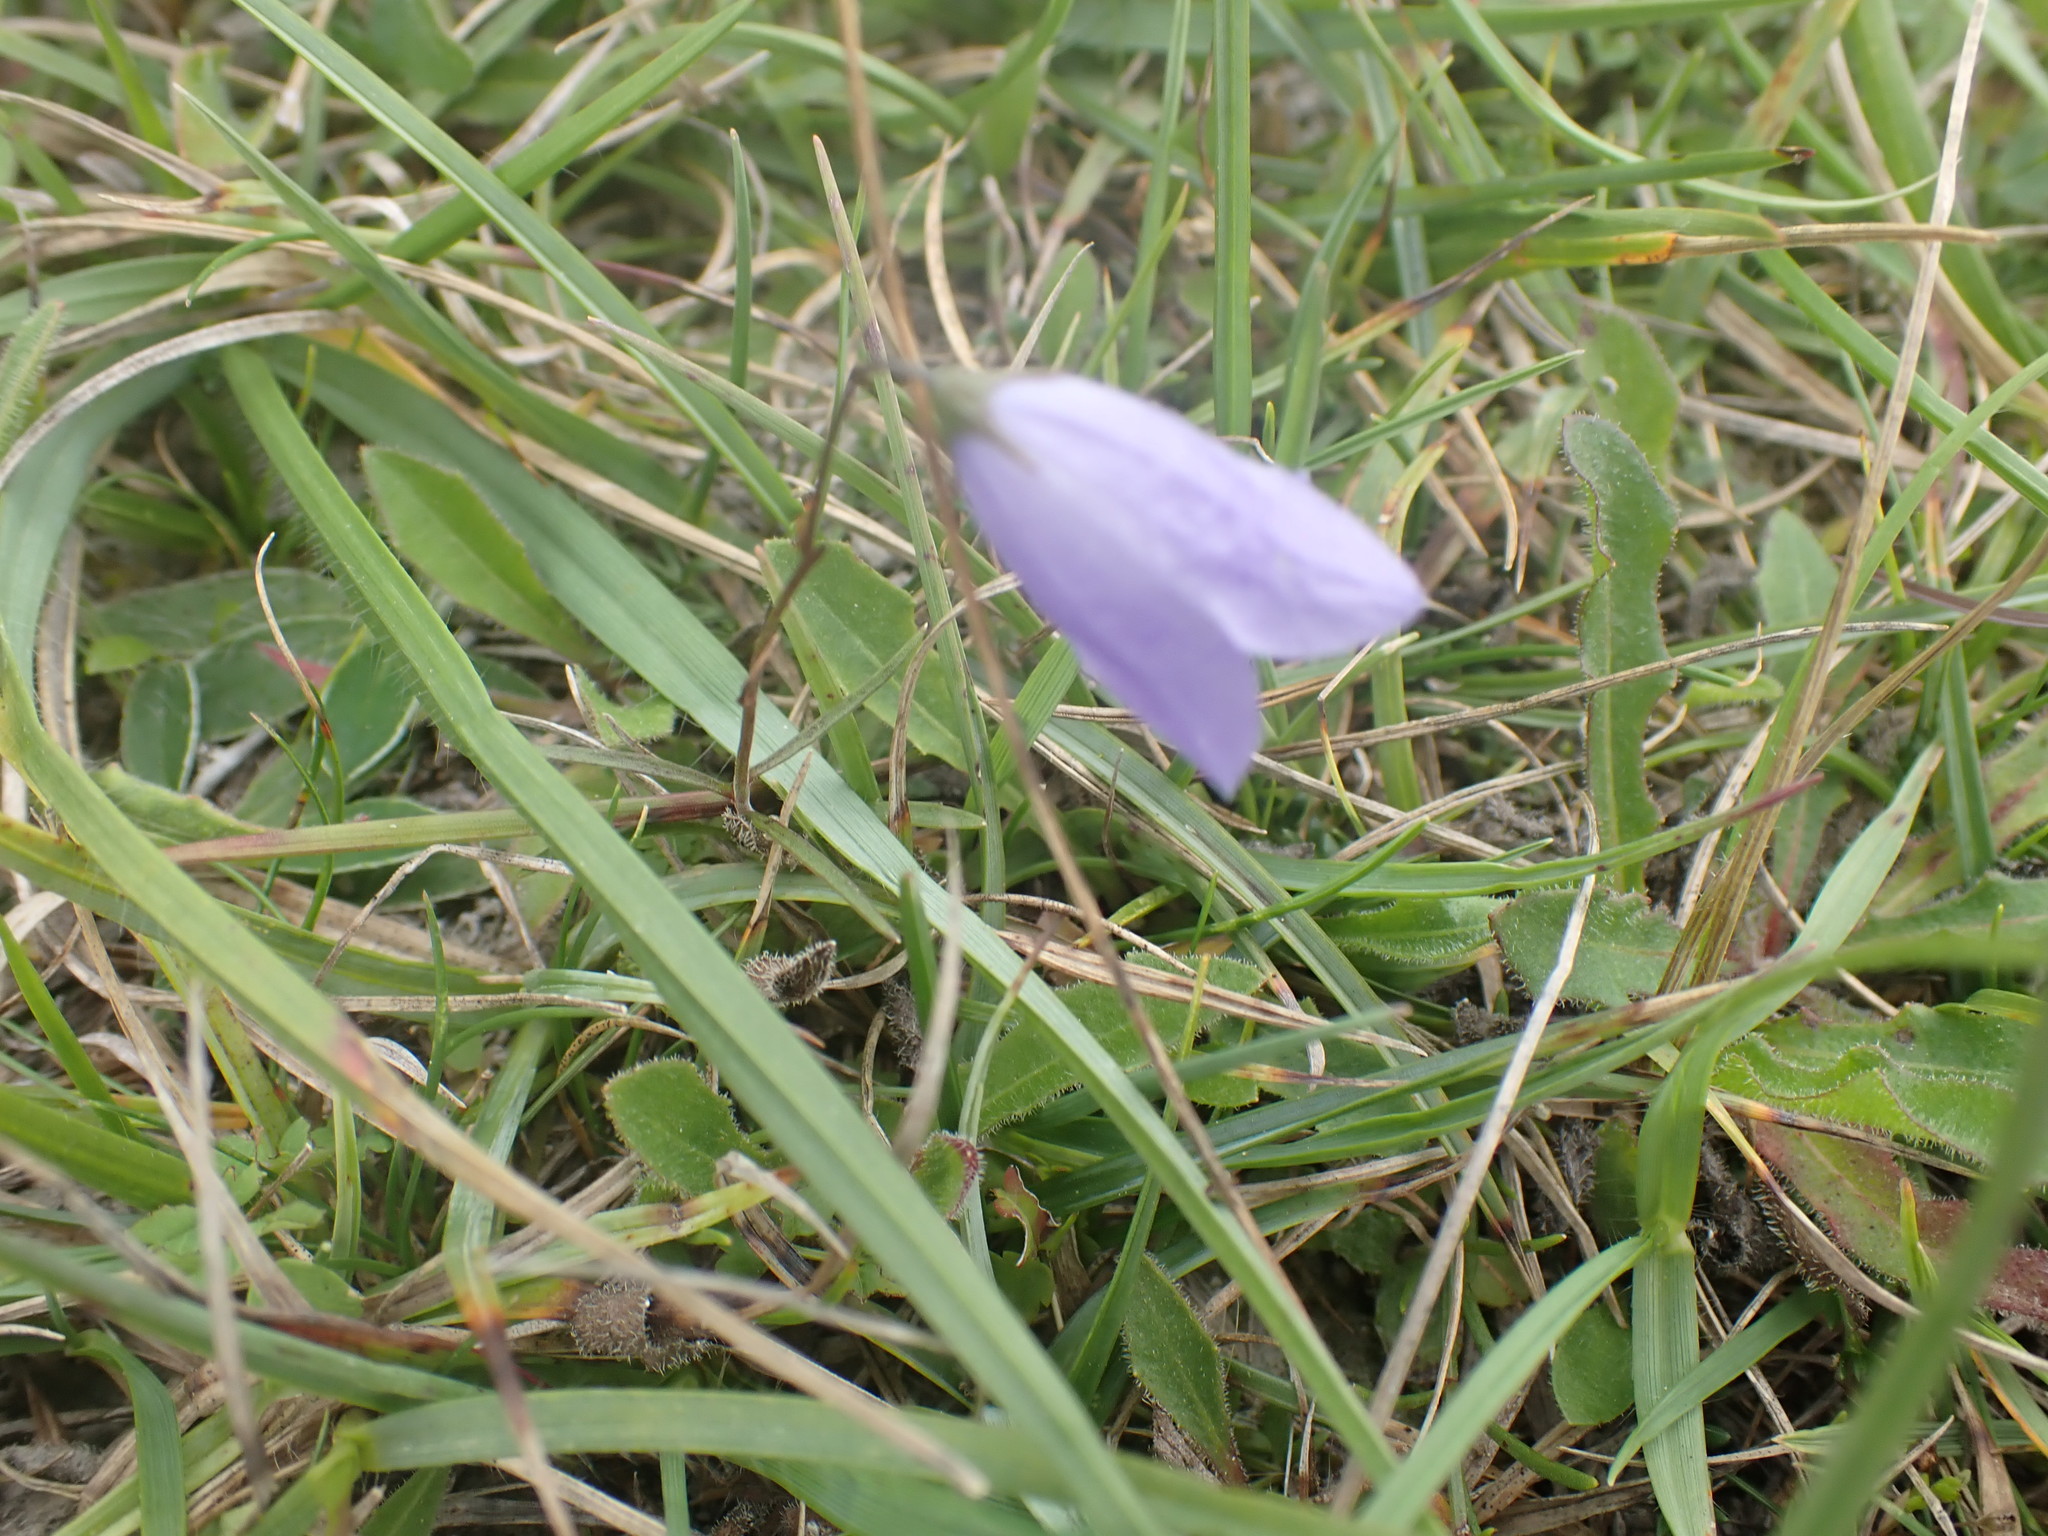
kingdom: Plantae
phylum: Tracheophyta
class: Magnoliopsida
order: Asterales
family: Campanulaceae
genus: Campanula
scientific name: Campanula rotundifolia
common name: Harebell
